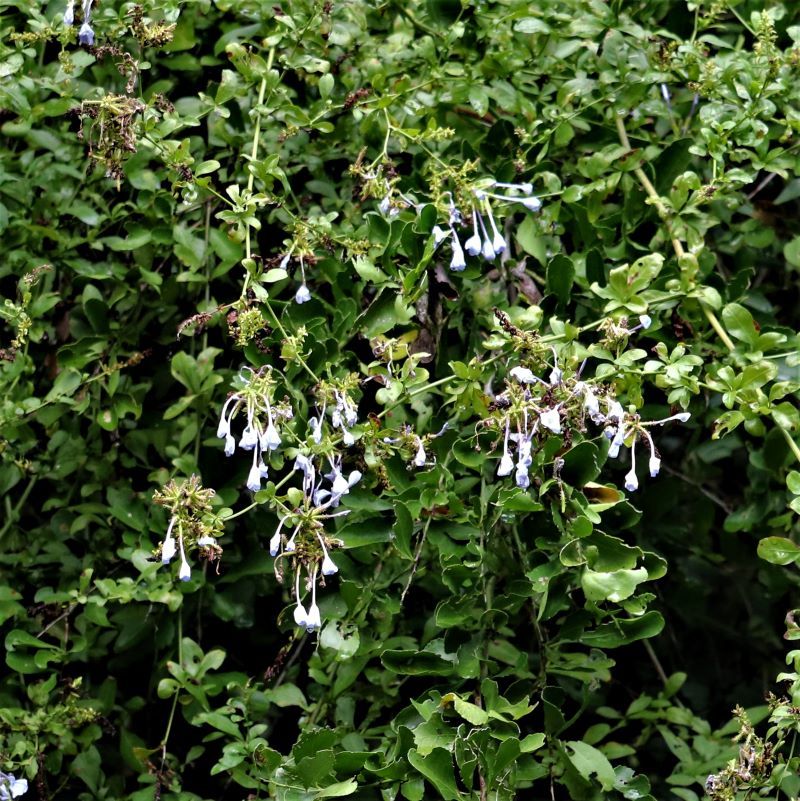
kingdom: Plantae
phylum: Tracheophyta
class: Magnoliopsida
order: Caryophyllales
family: Plumbaginaceae
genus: Plumbago
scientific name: Plumbago auriculata
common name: Cape leadwort
